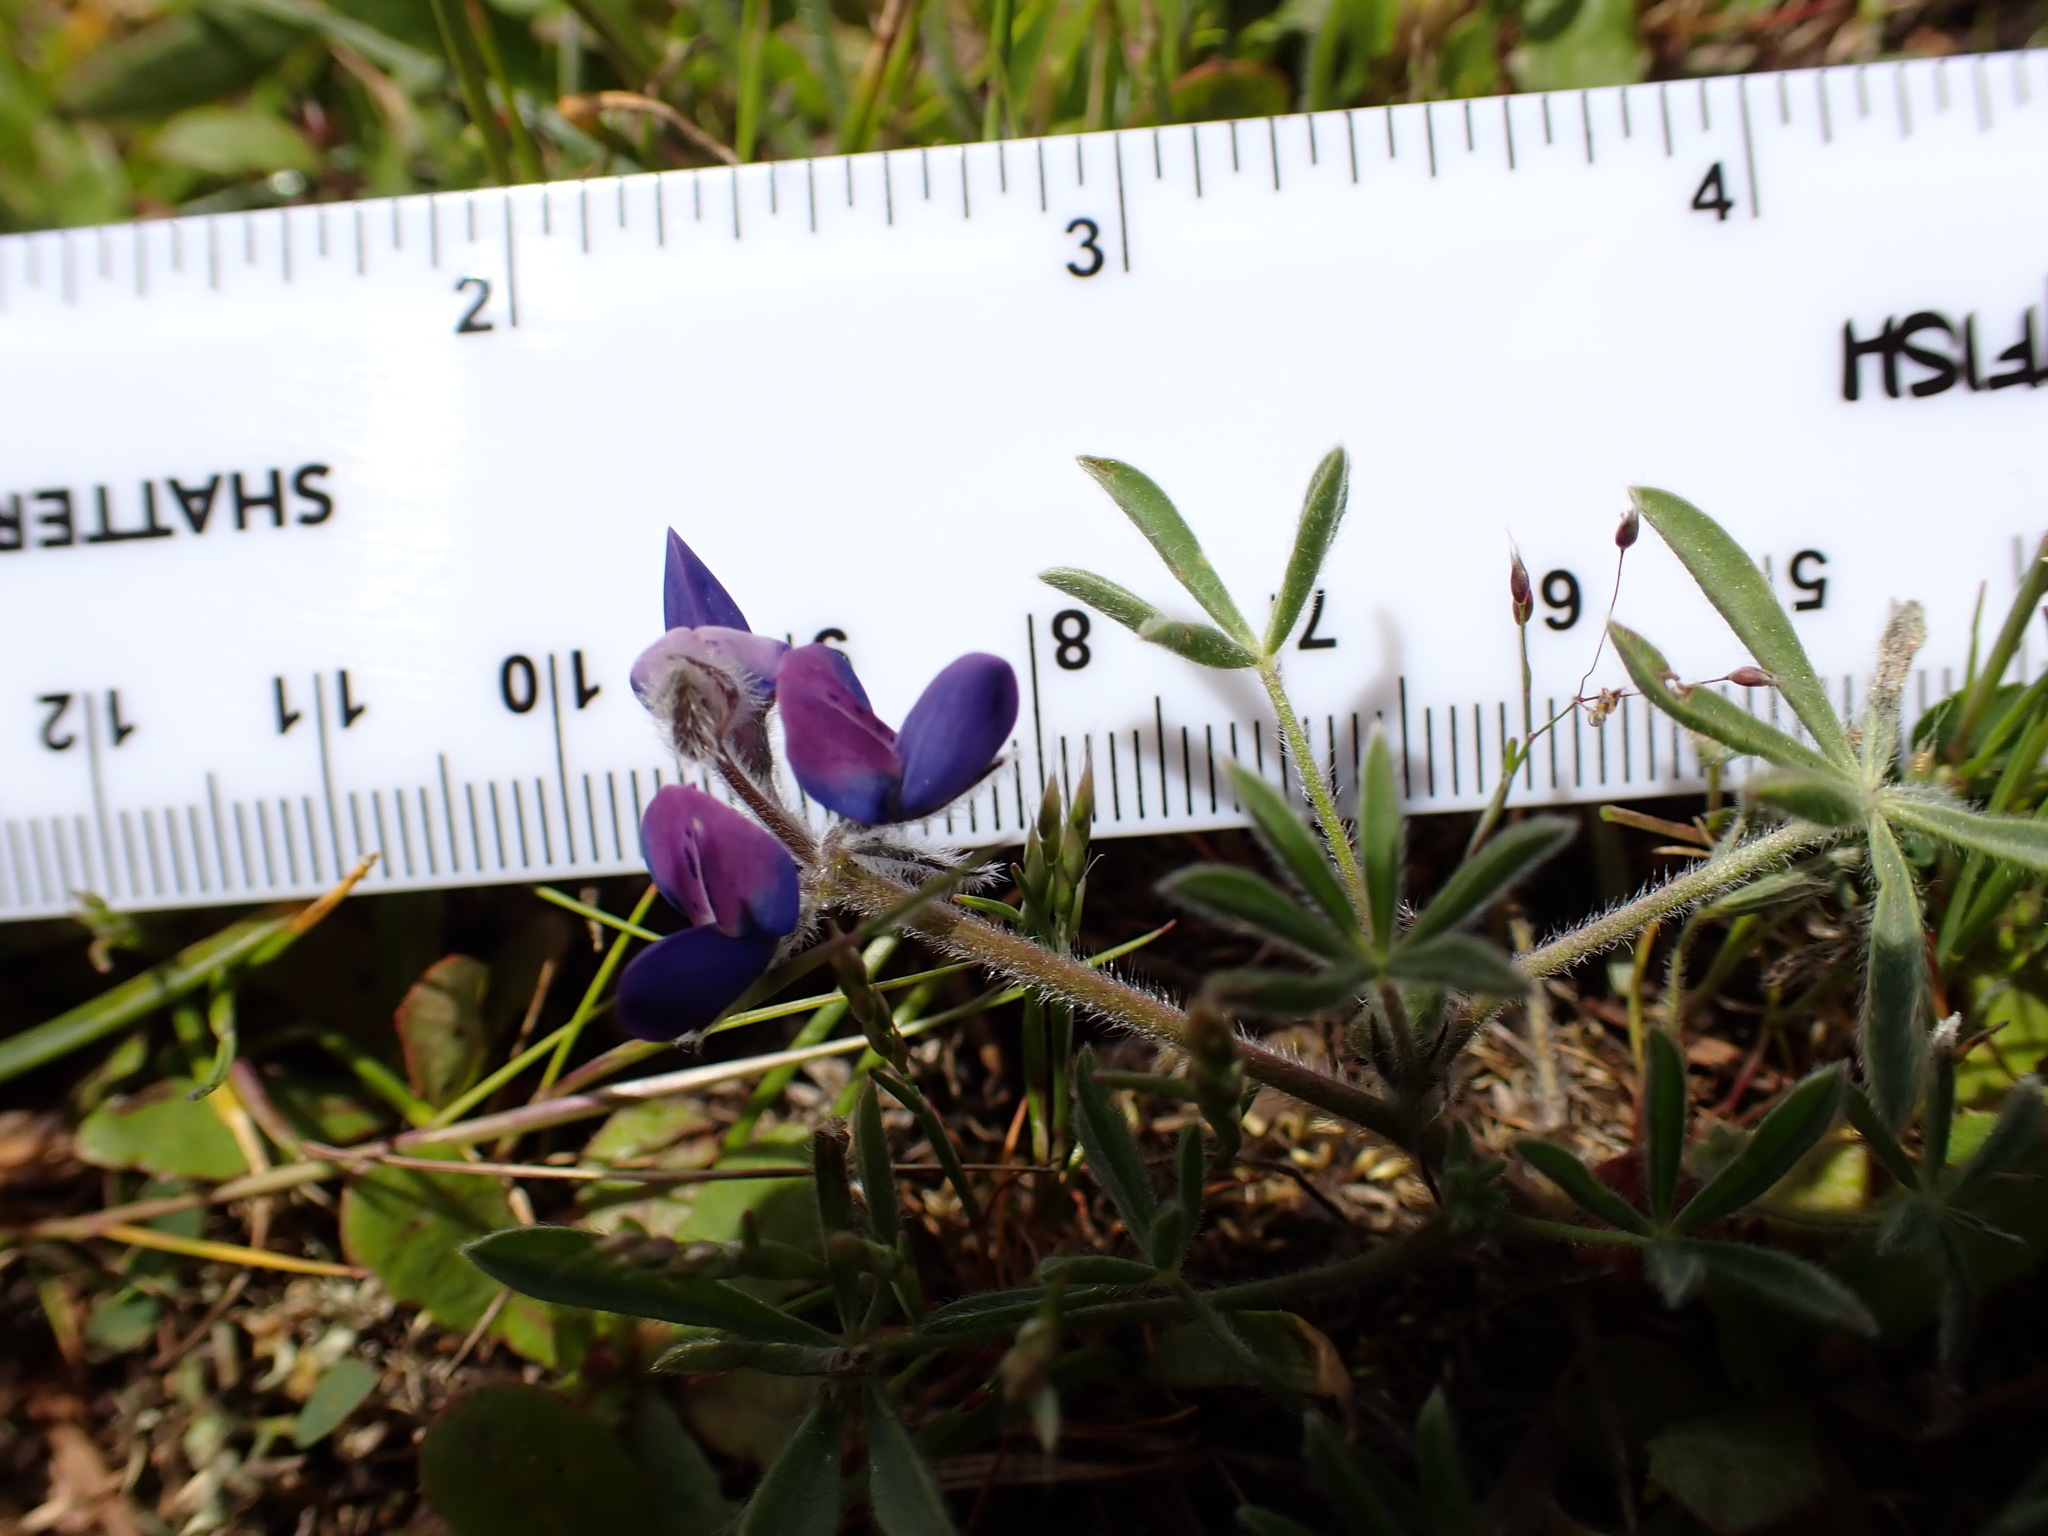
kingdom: Plantae
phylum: Tracheophyta
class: Magnoliopsida
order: Fabales
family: Fabaceae
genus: Lupinus
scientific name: Lupinus bicolor
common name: Miniature lupine
